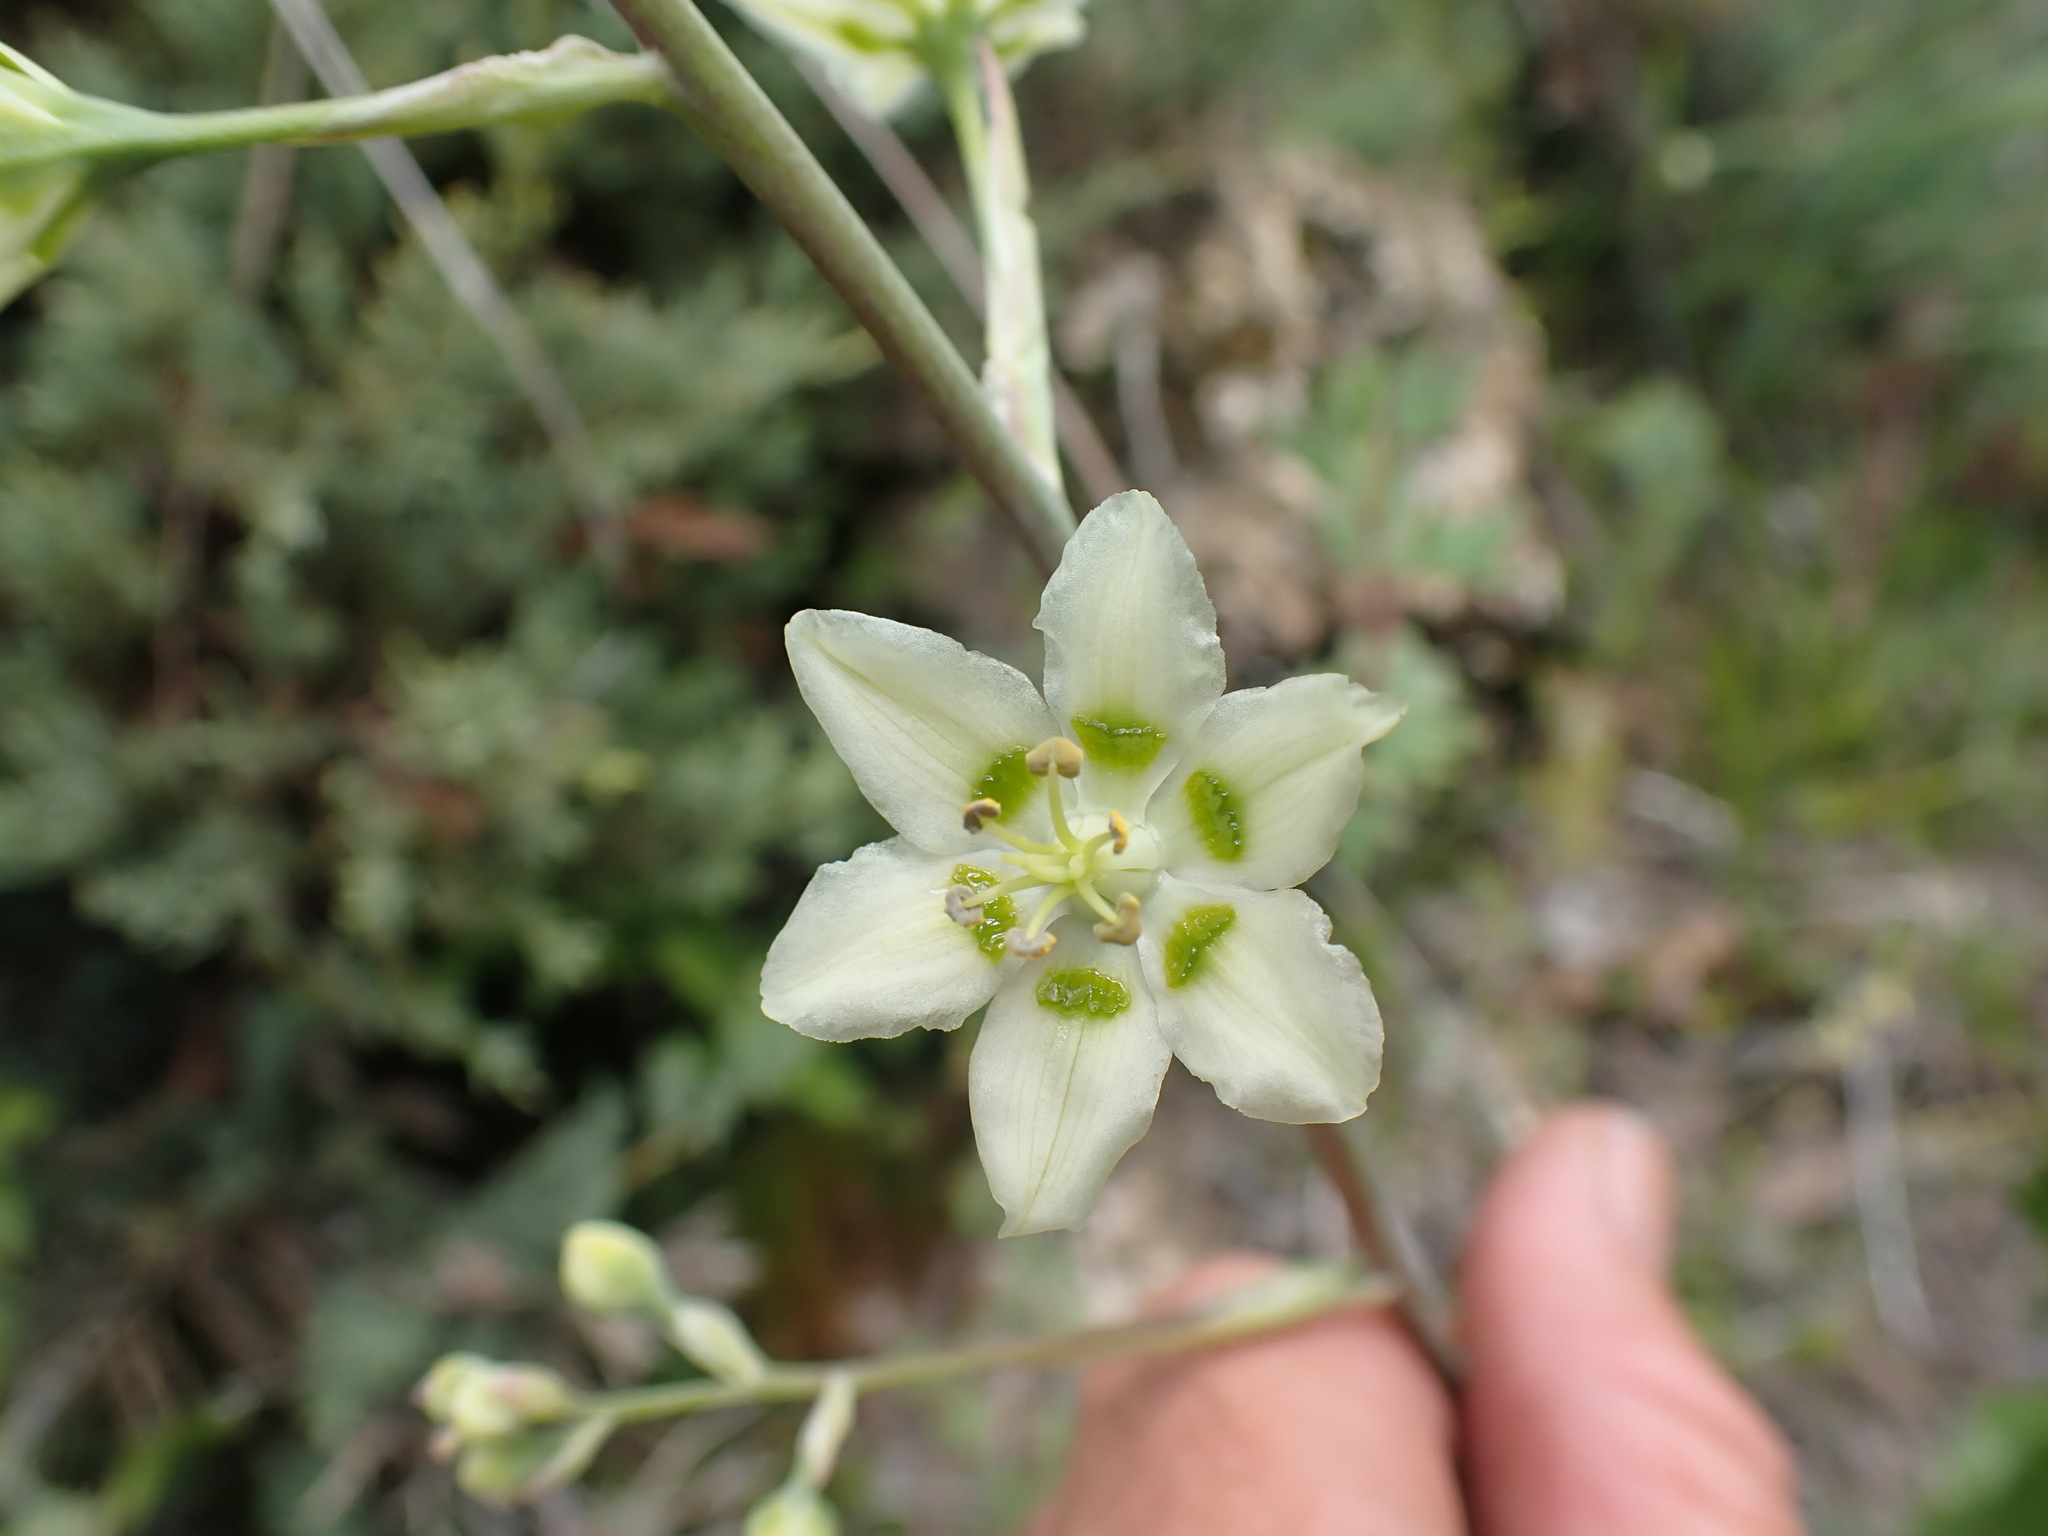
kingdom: Plantae
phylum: Tracheophyta
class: Liliopsida
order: Liliales
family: Melanthiaceae
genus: Anticlea
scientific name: Anticlea elegans
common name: Mountain death camas
